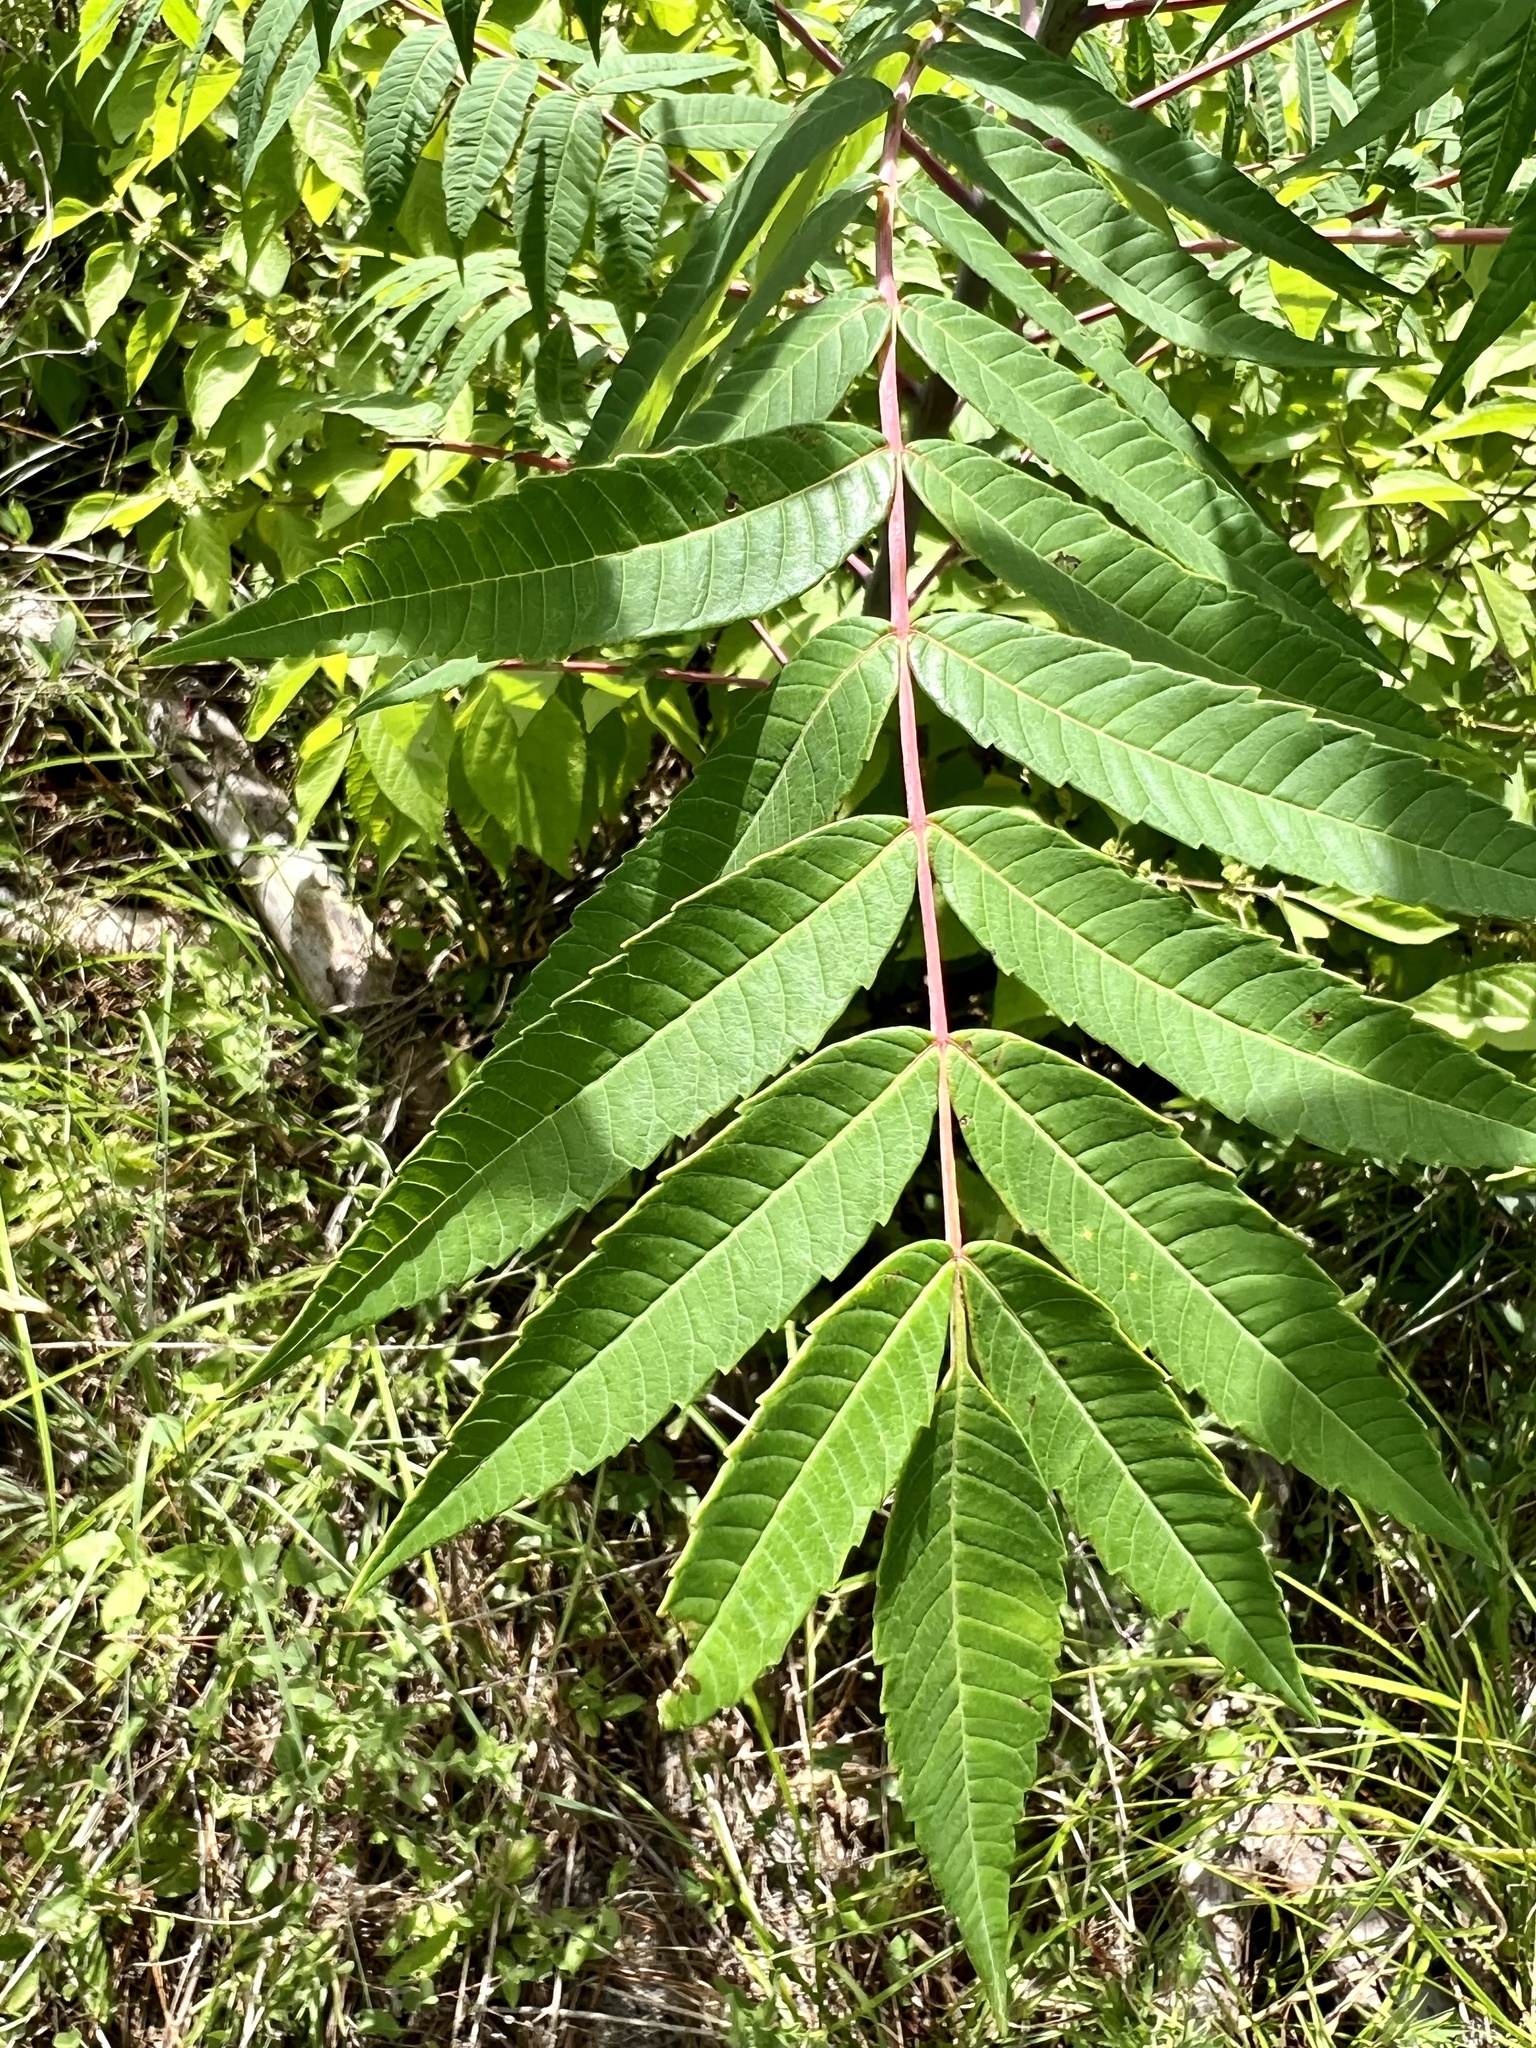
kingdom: Plantae
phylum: Tracheophyta
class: Magnoliopsida
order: Sapindales
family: Anacardiaceae
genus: Rhus
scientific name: Rhus glabra
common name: Scarlet sumac
